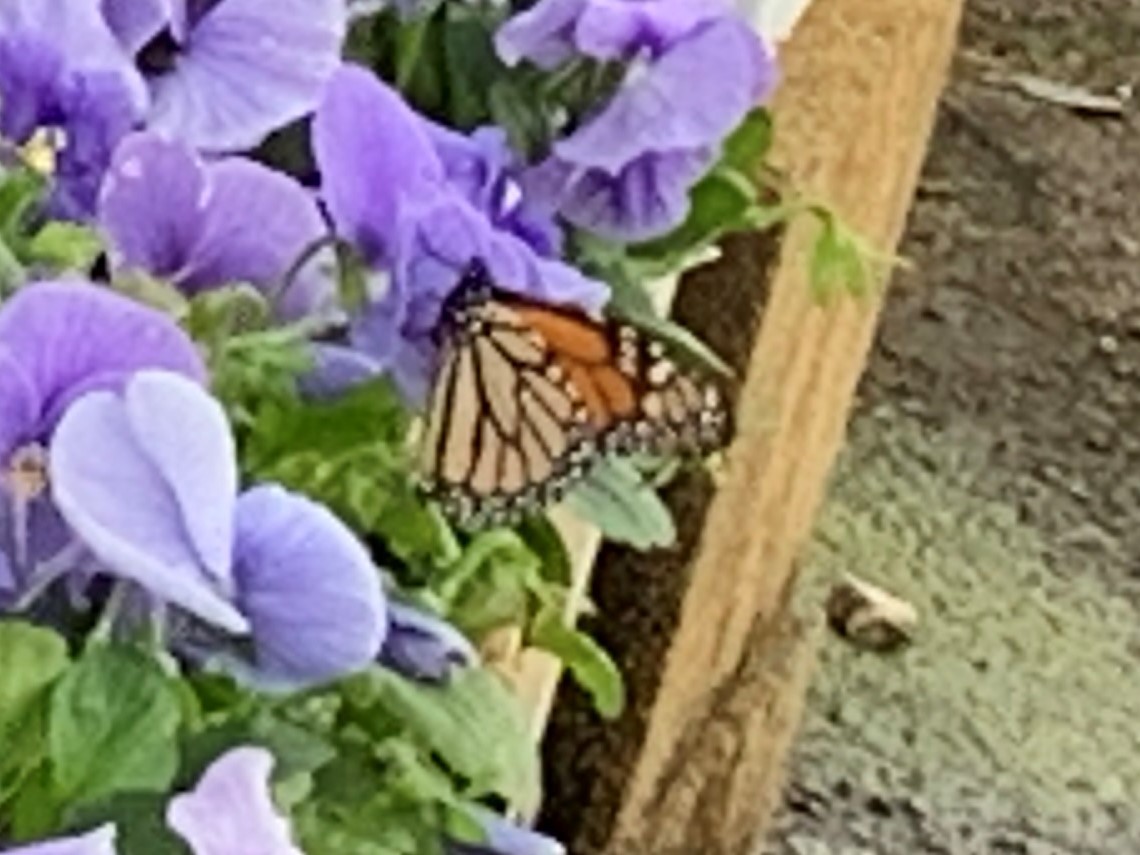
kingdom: Animalia
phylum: Arthropoda
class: Insecta
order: Lepidoptera
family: Nymphalidae
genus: Danaus
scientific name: Danaus plexippus
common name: Monarch
